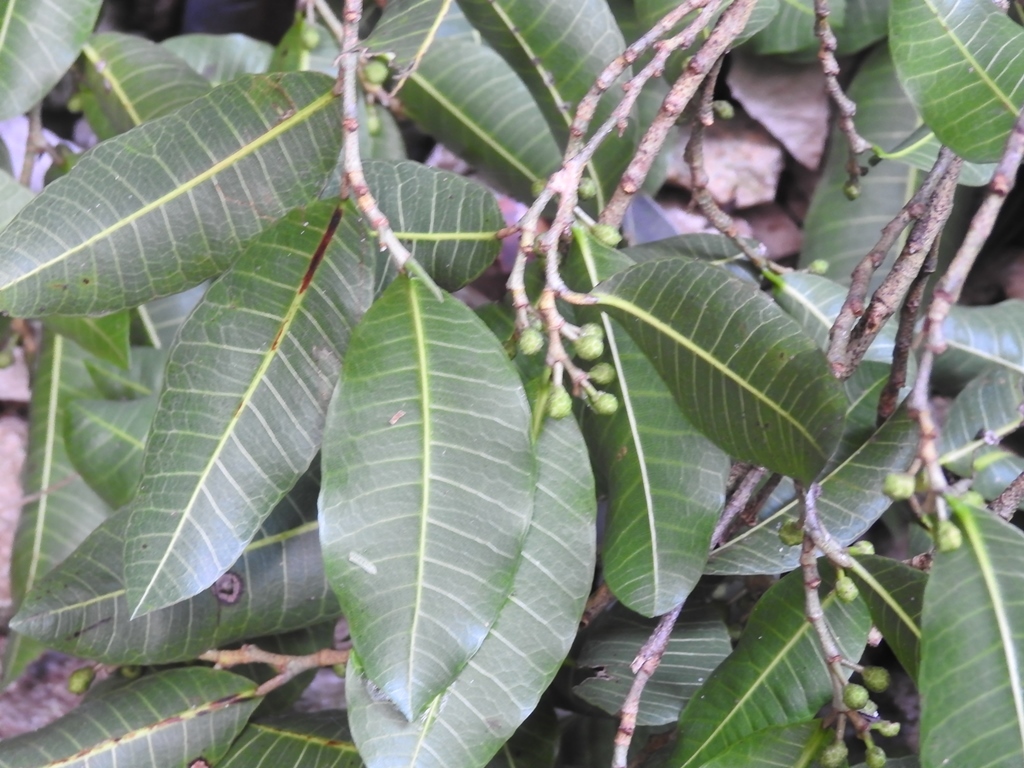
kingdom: Plantae
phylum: Tracheophyta
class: Magnoliopsida
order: Rosales
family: Moraceae
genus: Brosimum
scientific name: Brosimum alicastrum
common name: Breadnut
